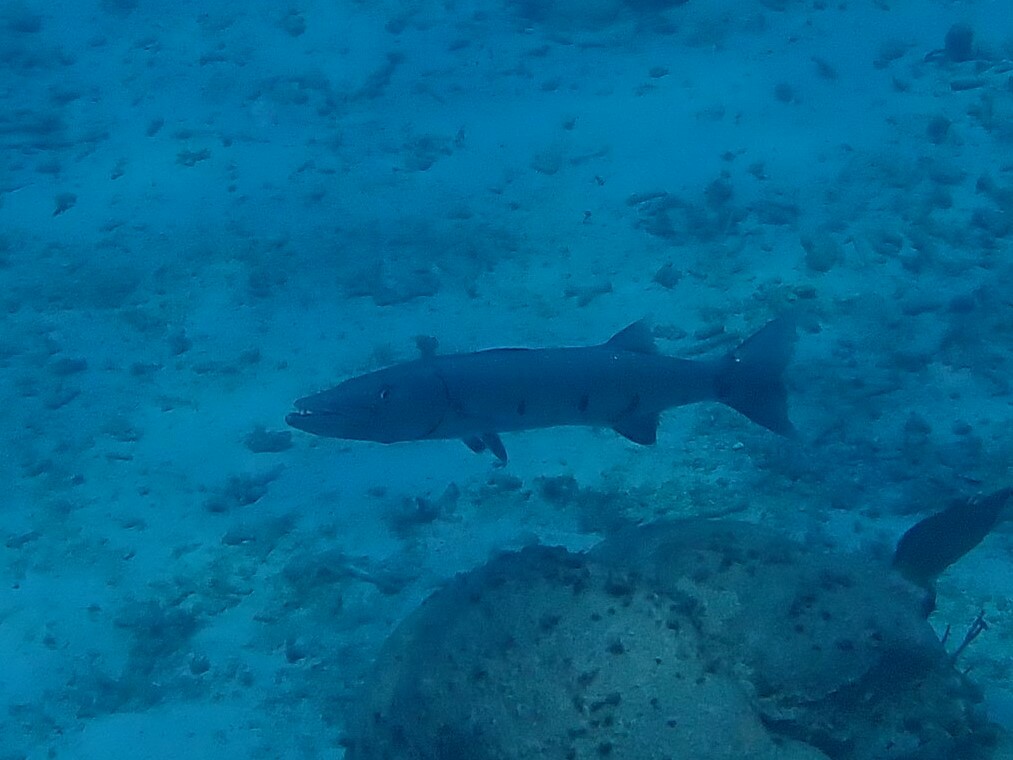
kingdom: Animalia
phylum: Chordata
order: Perciformes
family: Sphyraenidae
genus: Sphyraena
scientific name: Sphyraena barracuda
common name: Great barracuda
